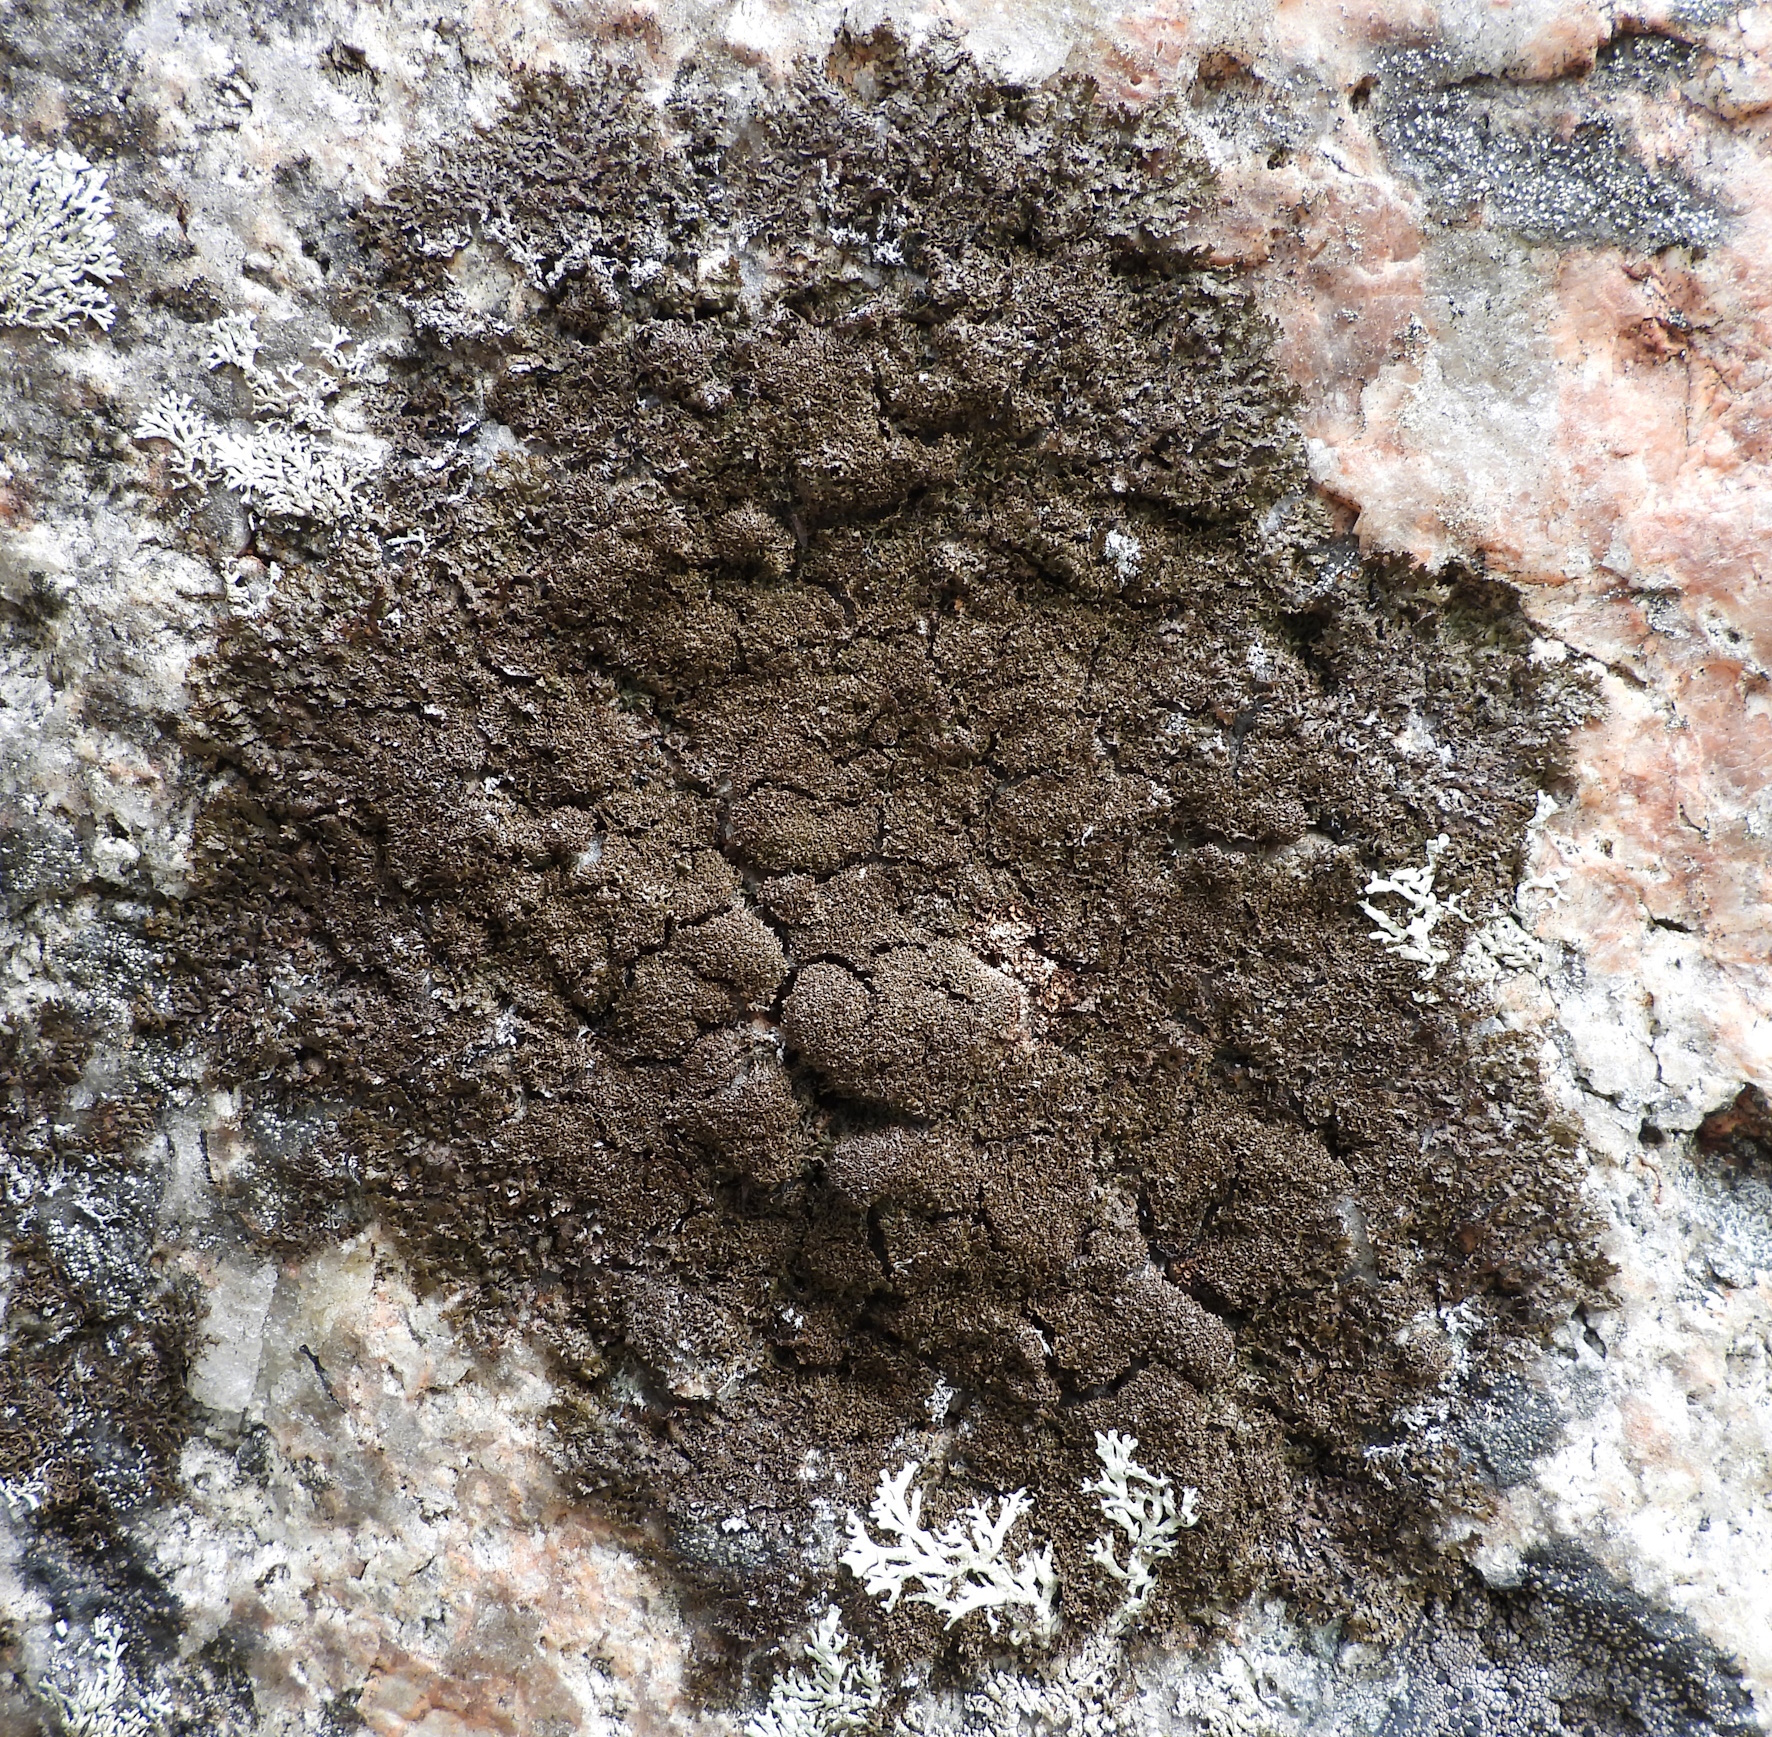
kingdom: Fungi
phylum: Ascomycota
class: Lecanoromycetes
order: Lecanorales
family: Parmeliaceae
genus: Montanelia
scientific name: Montanelia panniformis
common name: Shingled camouflage lichen
